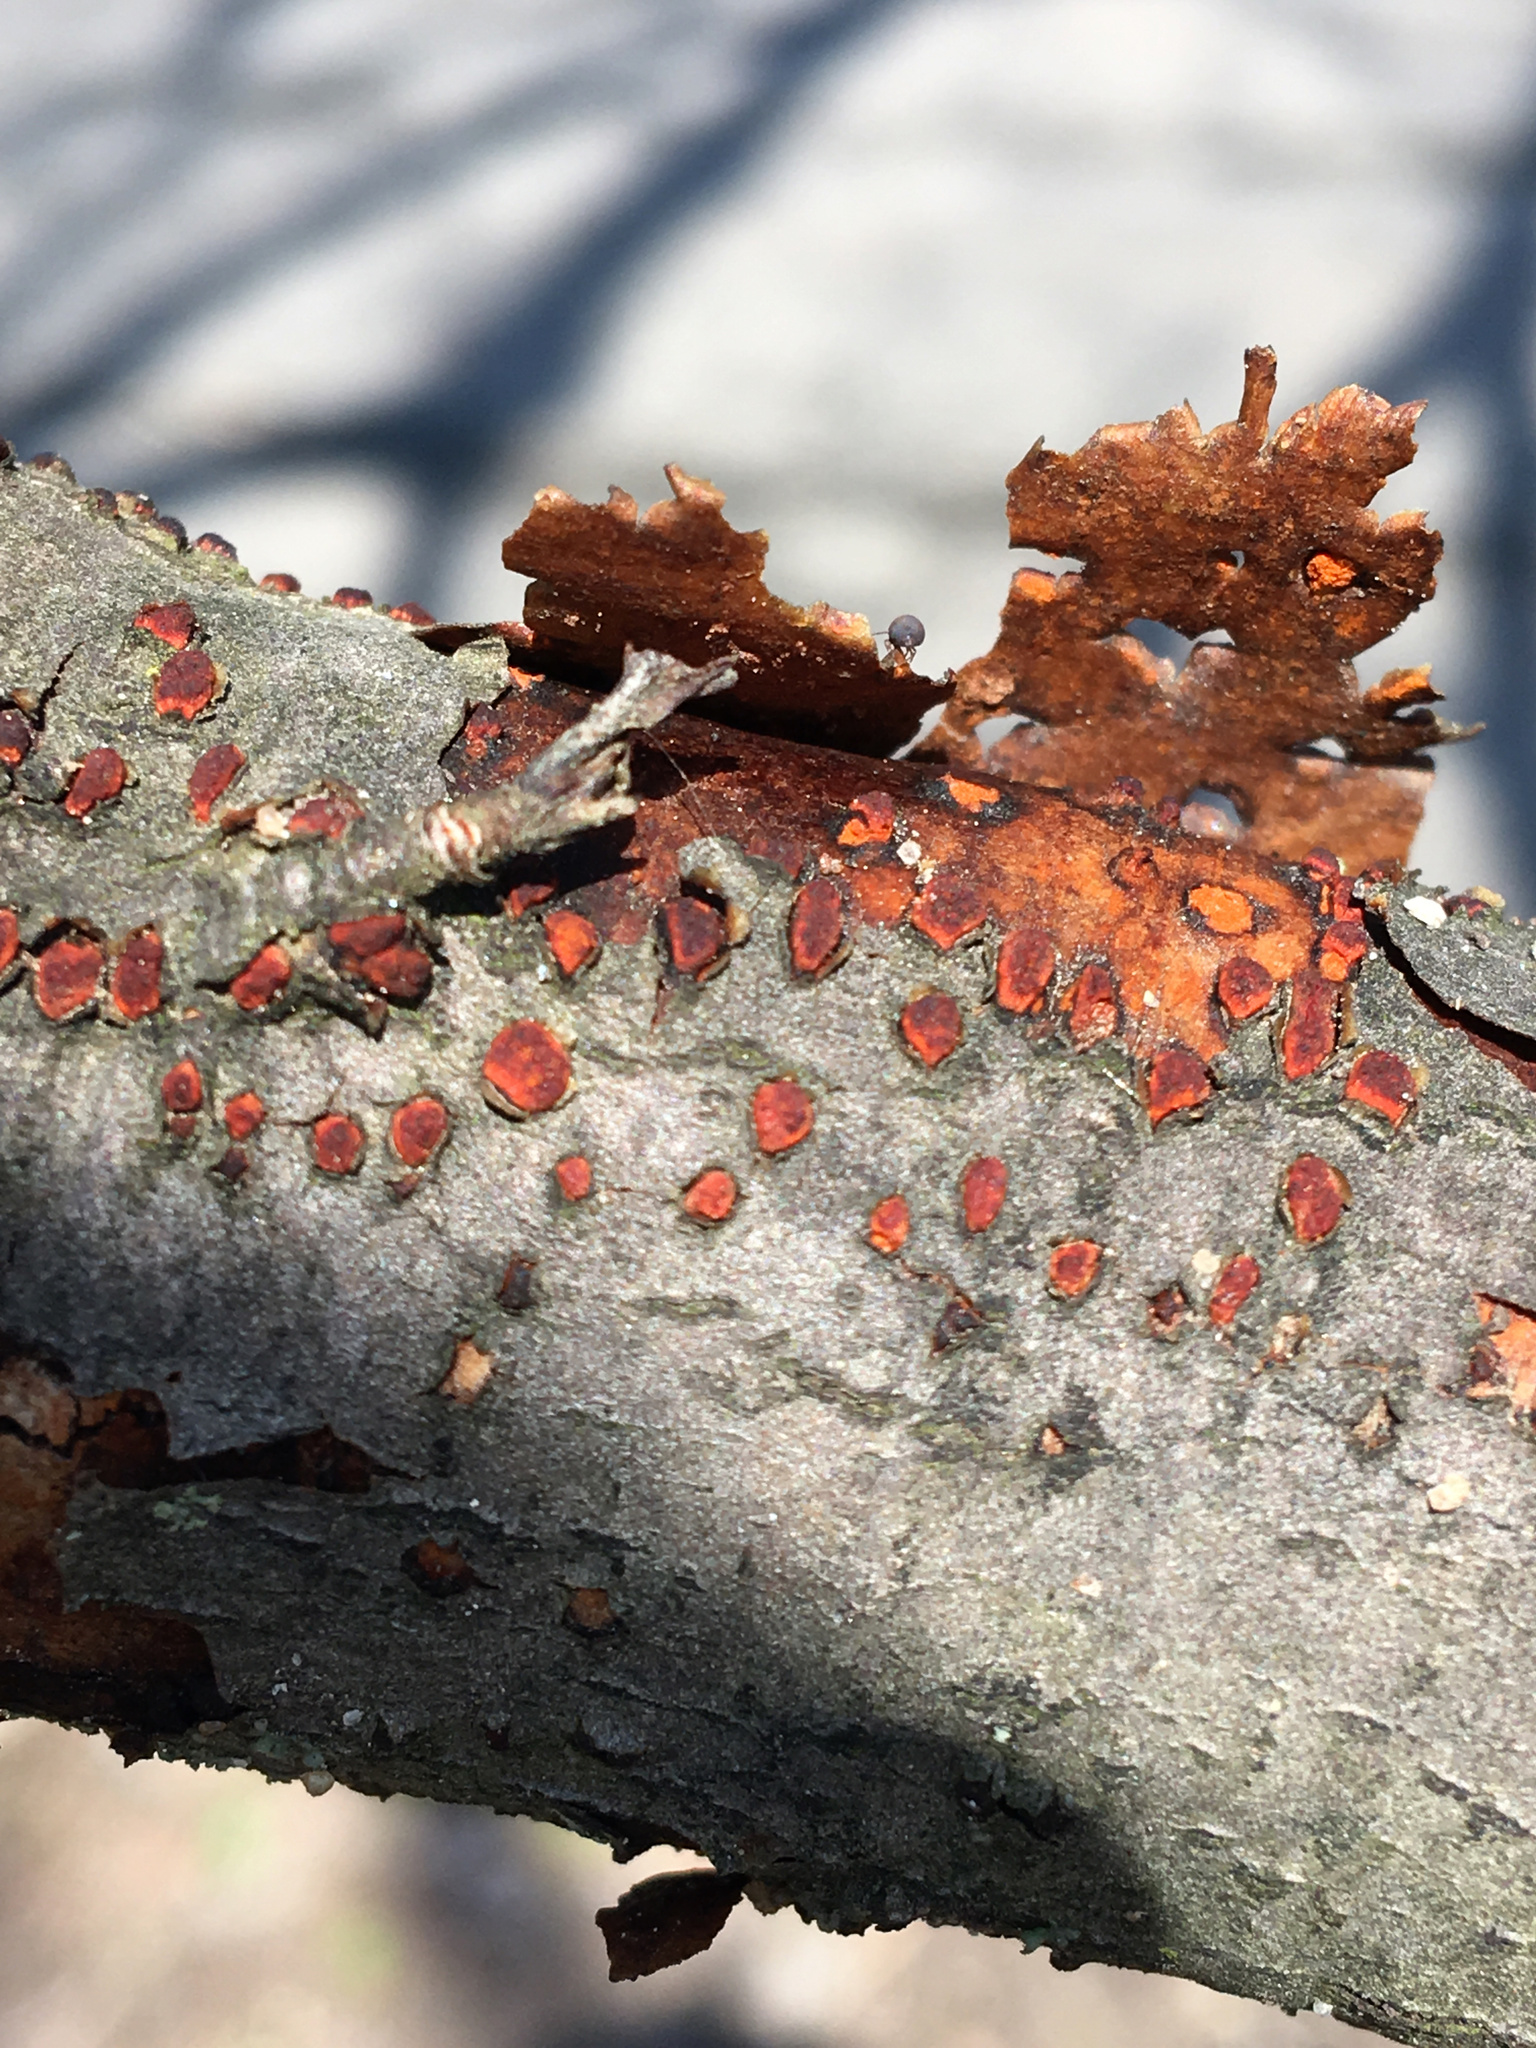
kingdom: Fungi
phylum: Ascomycota
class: Sordariomycetes
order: Diaporthales
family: Cryphonectriaceae
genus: Amphilogia
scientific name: Amphilogia gyrosa
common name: Orange hobnail canker
